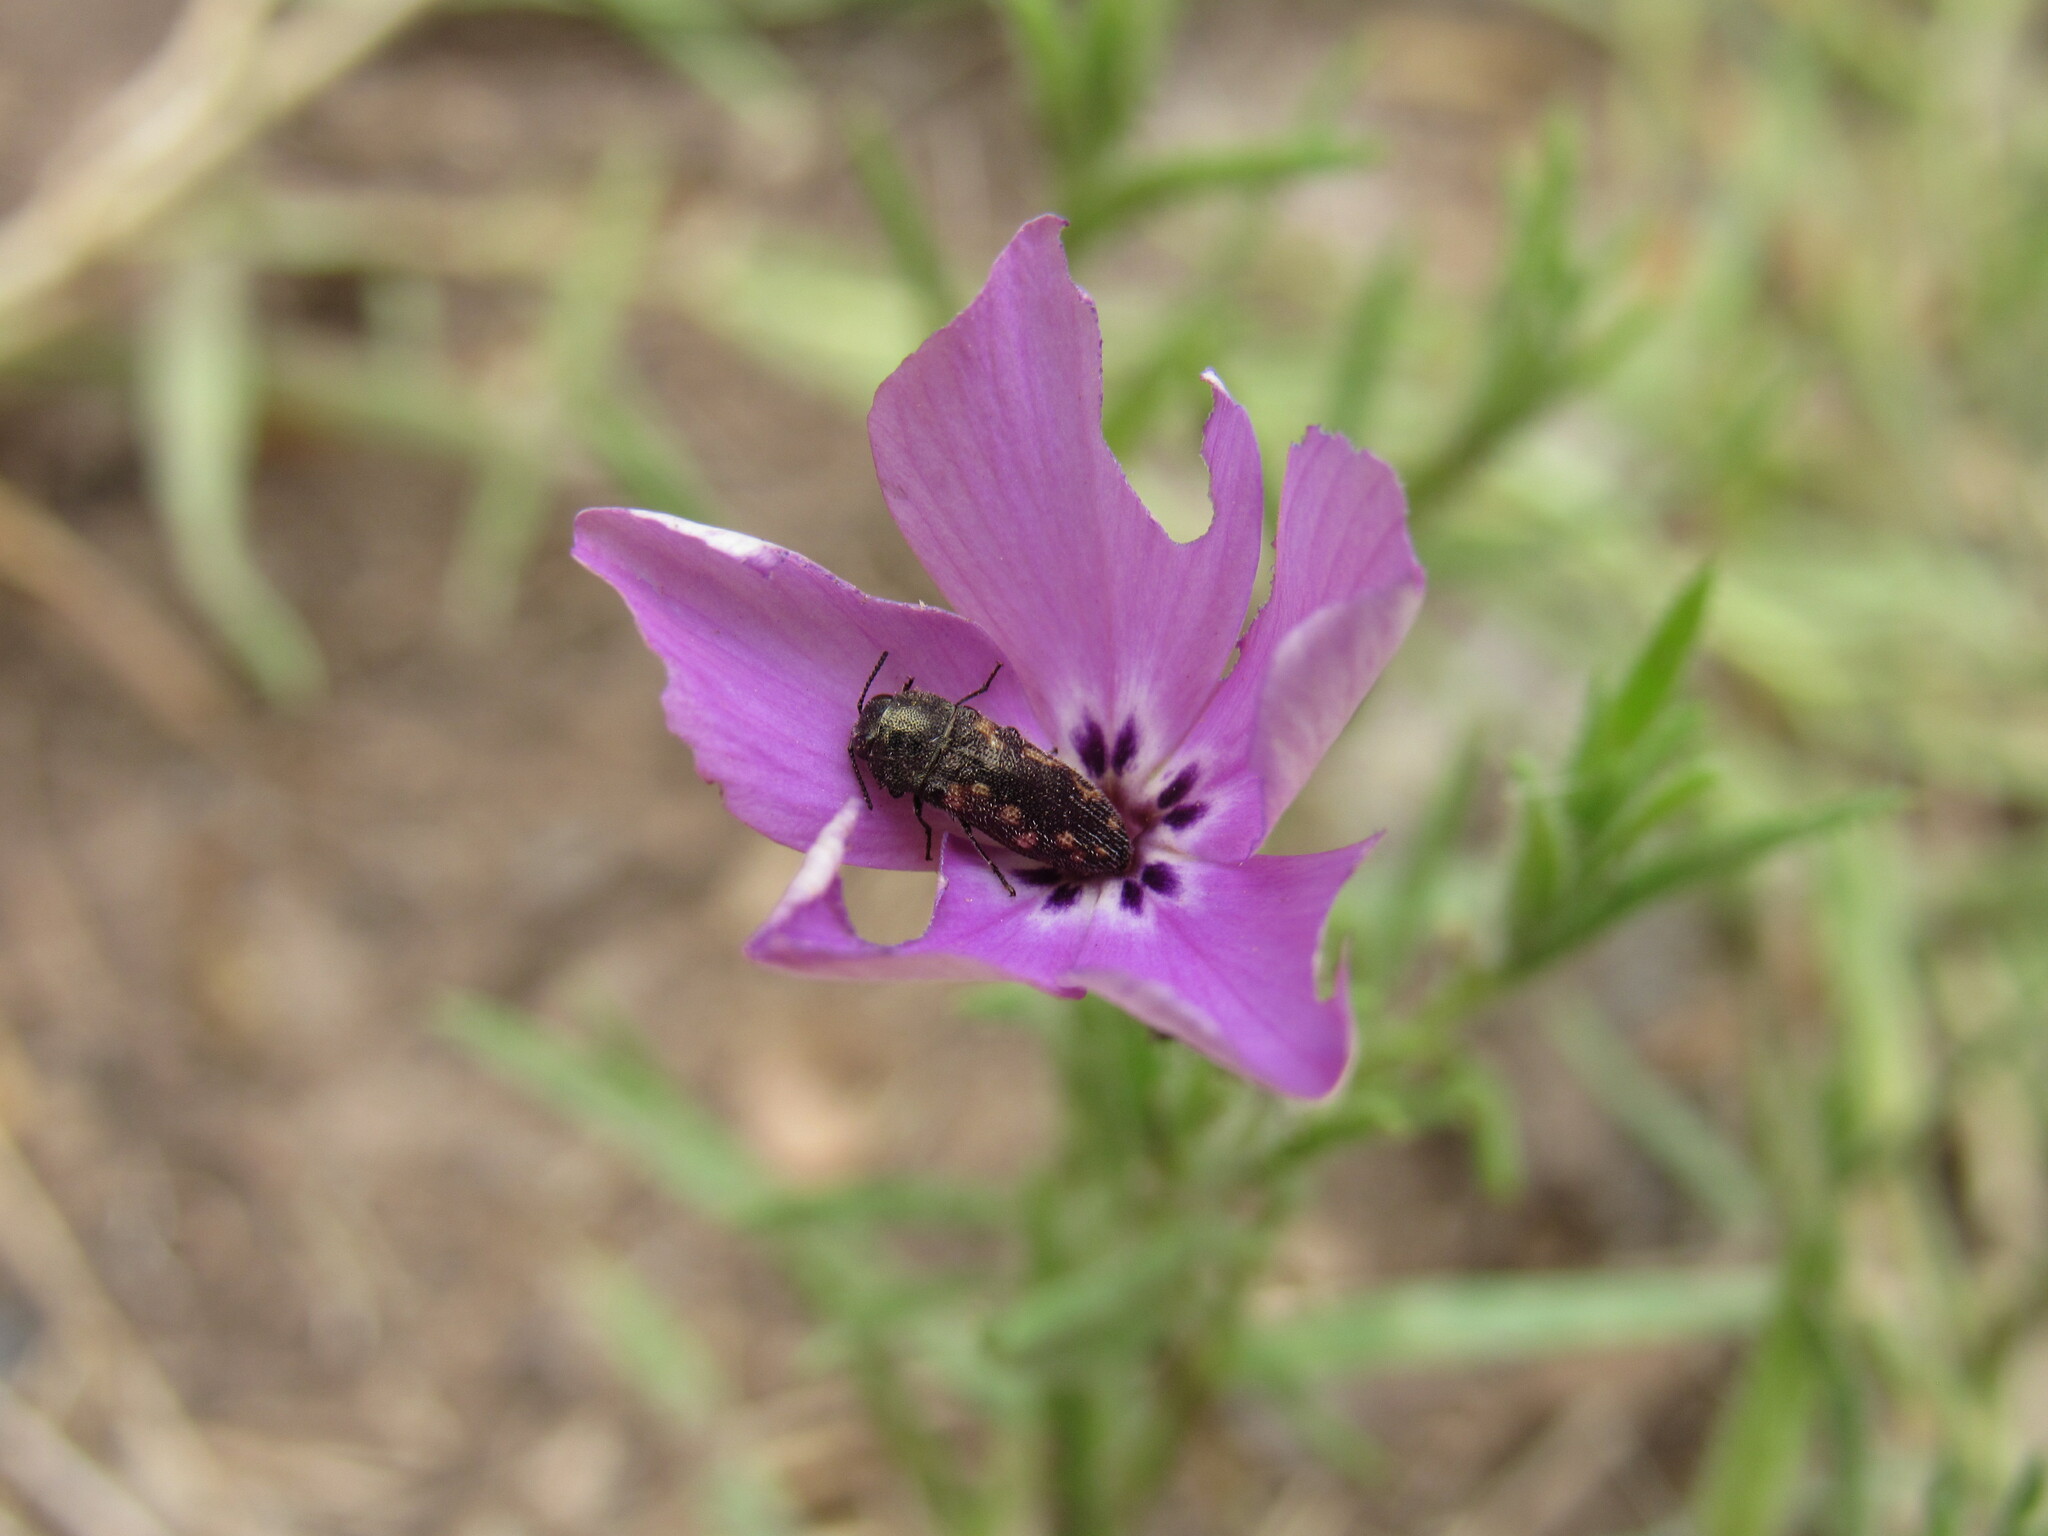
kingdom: Plantae
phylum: Tracheophyta
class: Magnoliopsida
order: Ericales
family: Polemoniaceae
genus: Phlox
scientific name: Phlox nana
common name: Santa fe phlox
